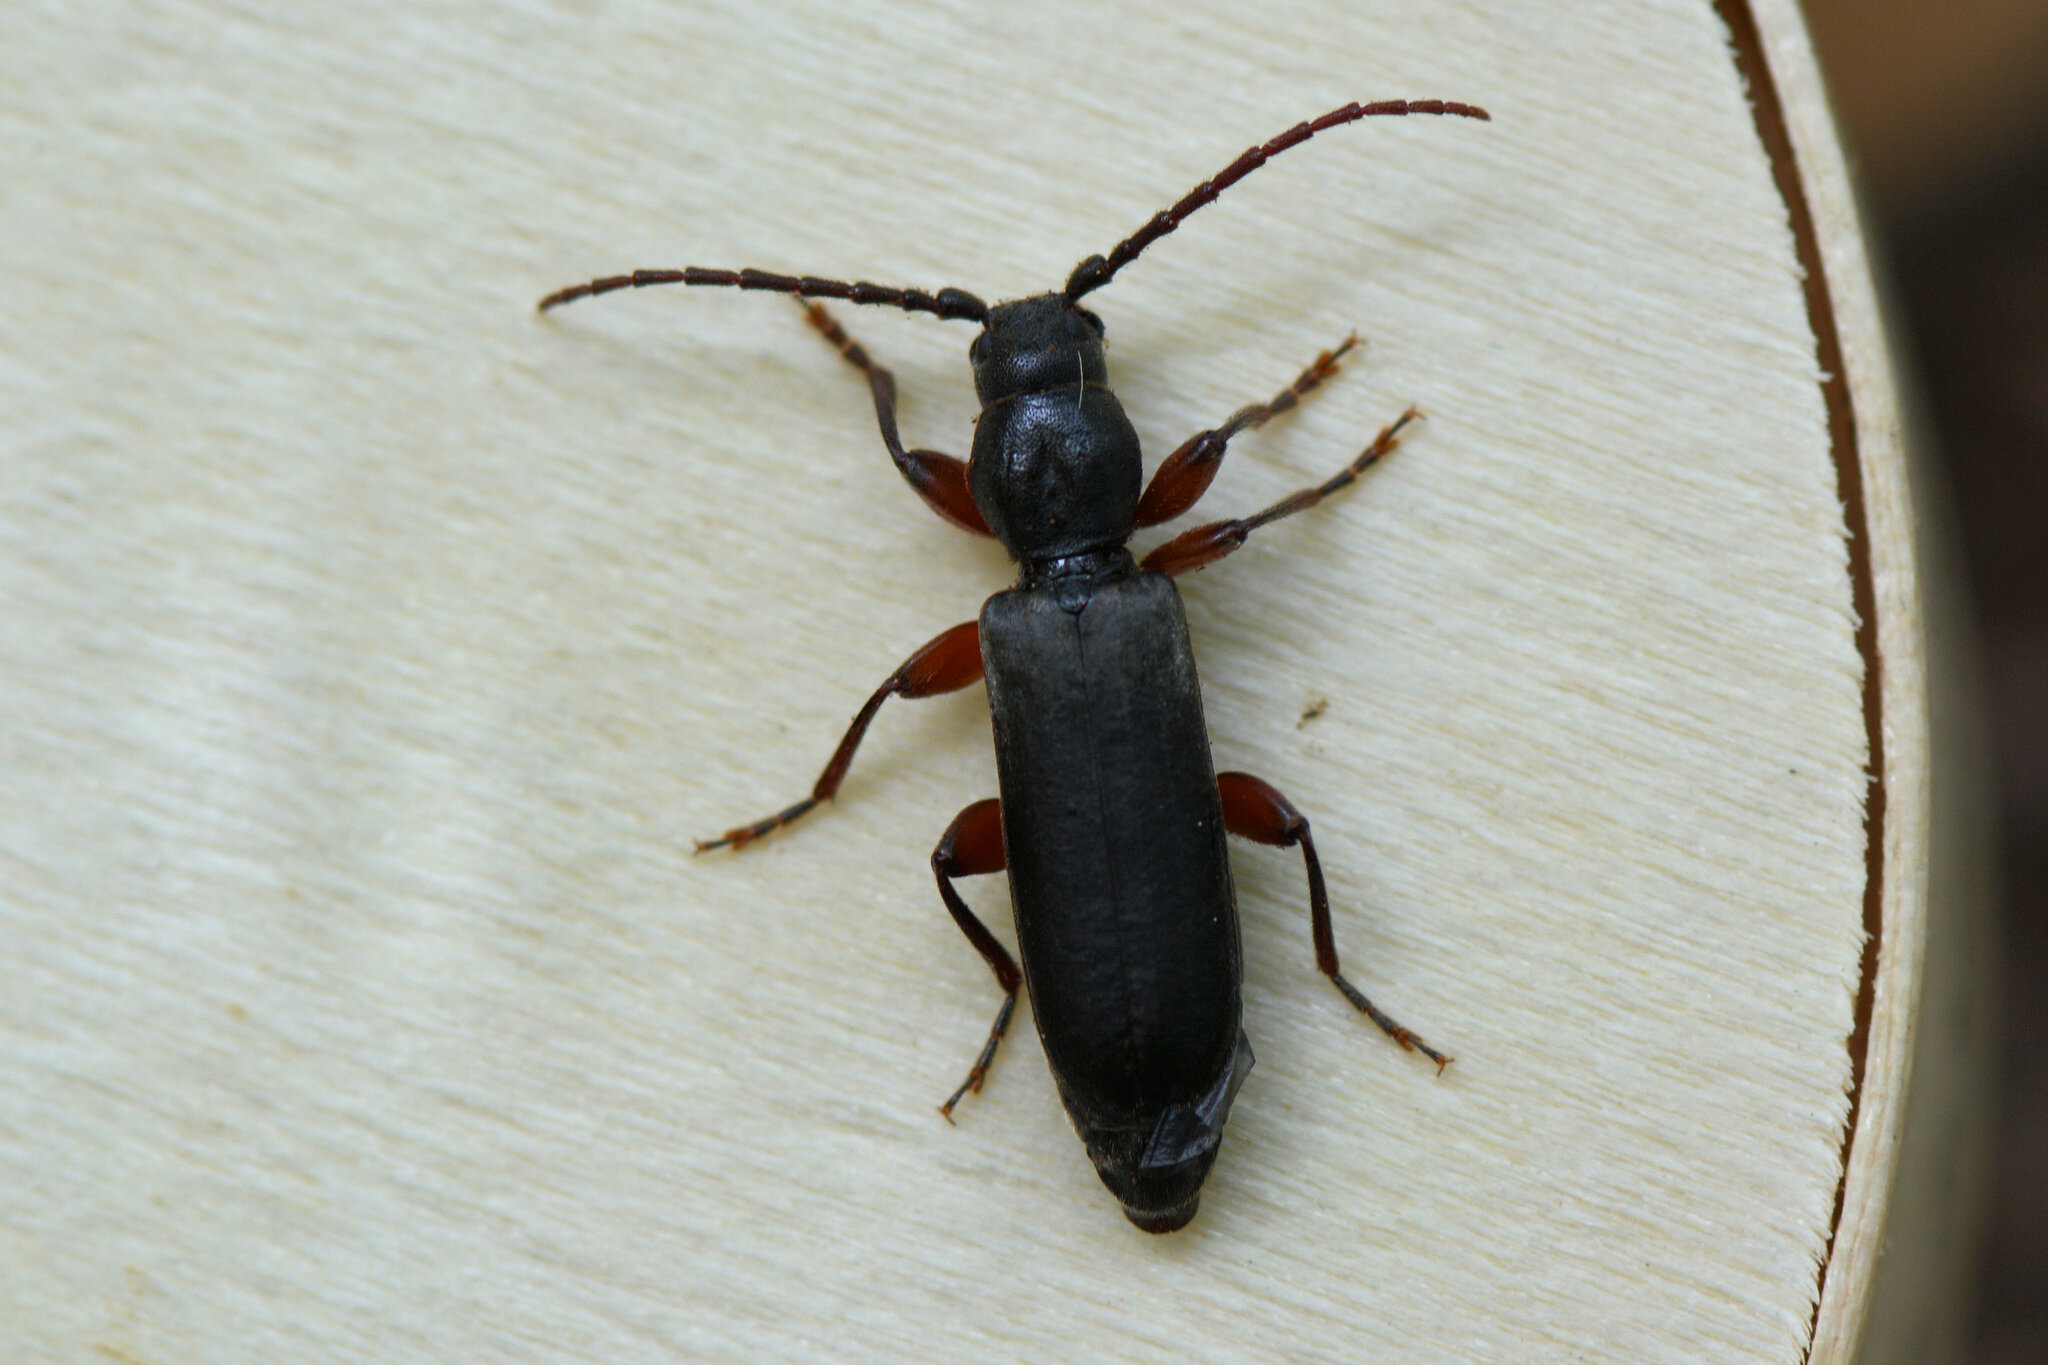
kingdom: Animalia
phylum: Arthropoda
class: Insecta
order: Coleoptera
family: Cerambycidae
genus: Tetropium
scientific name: Tetropium gabrieli
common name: Larch longhorn
